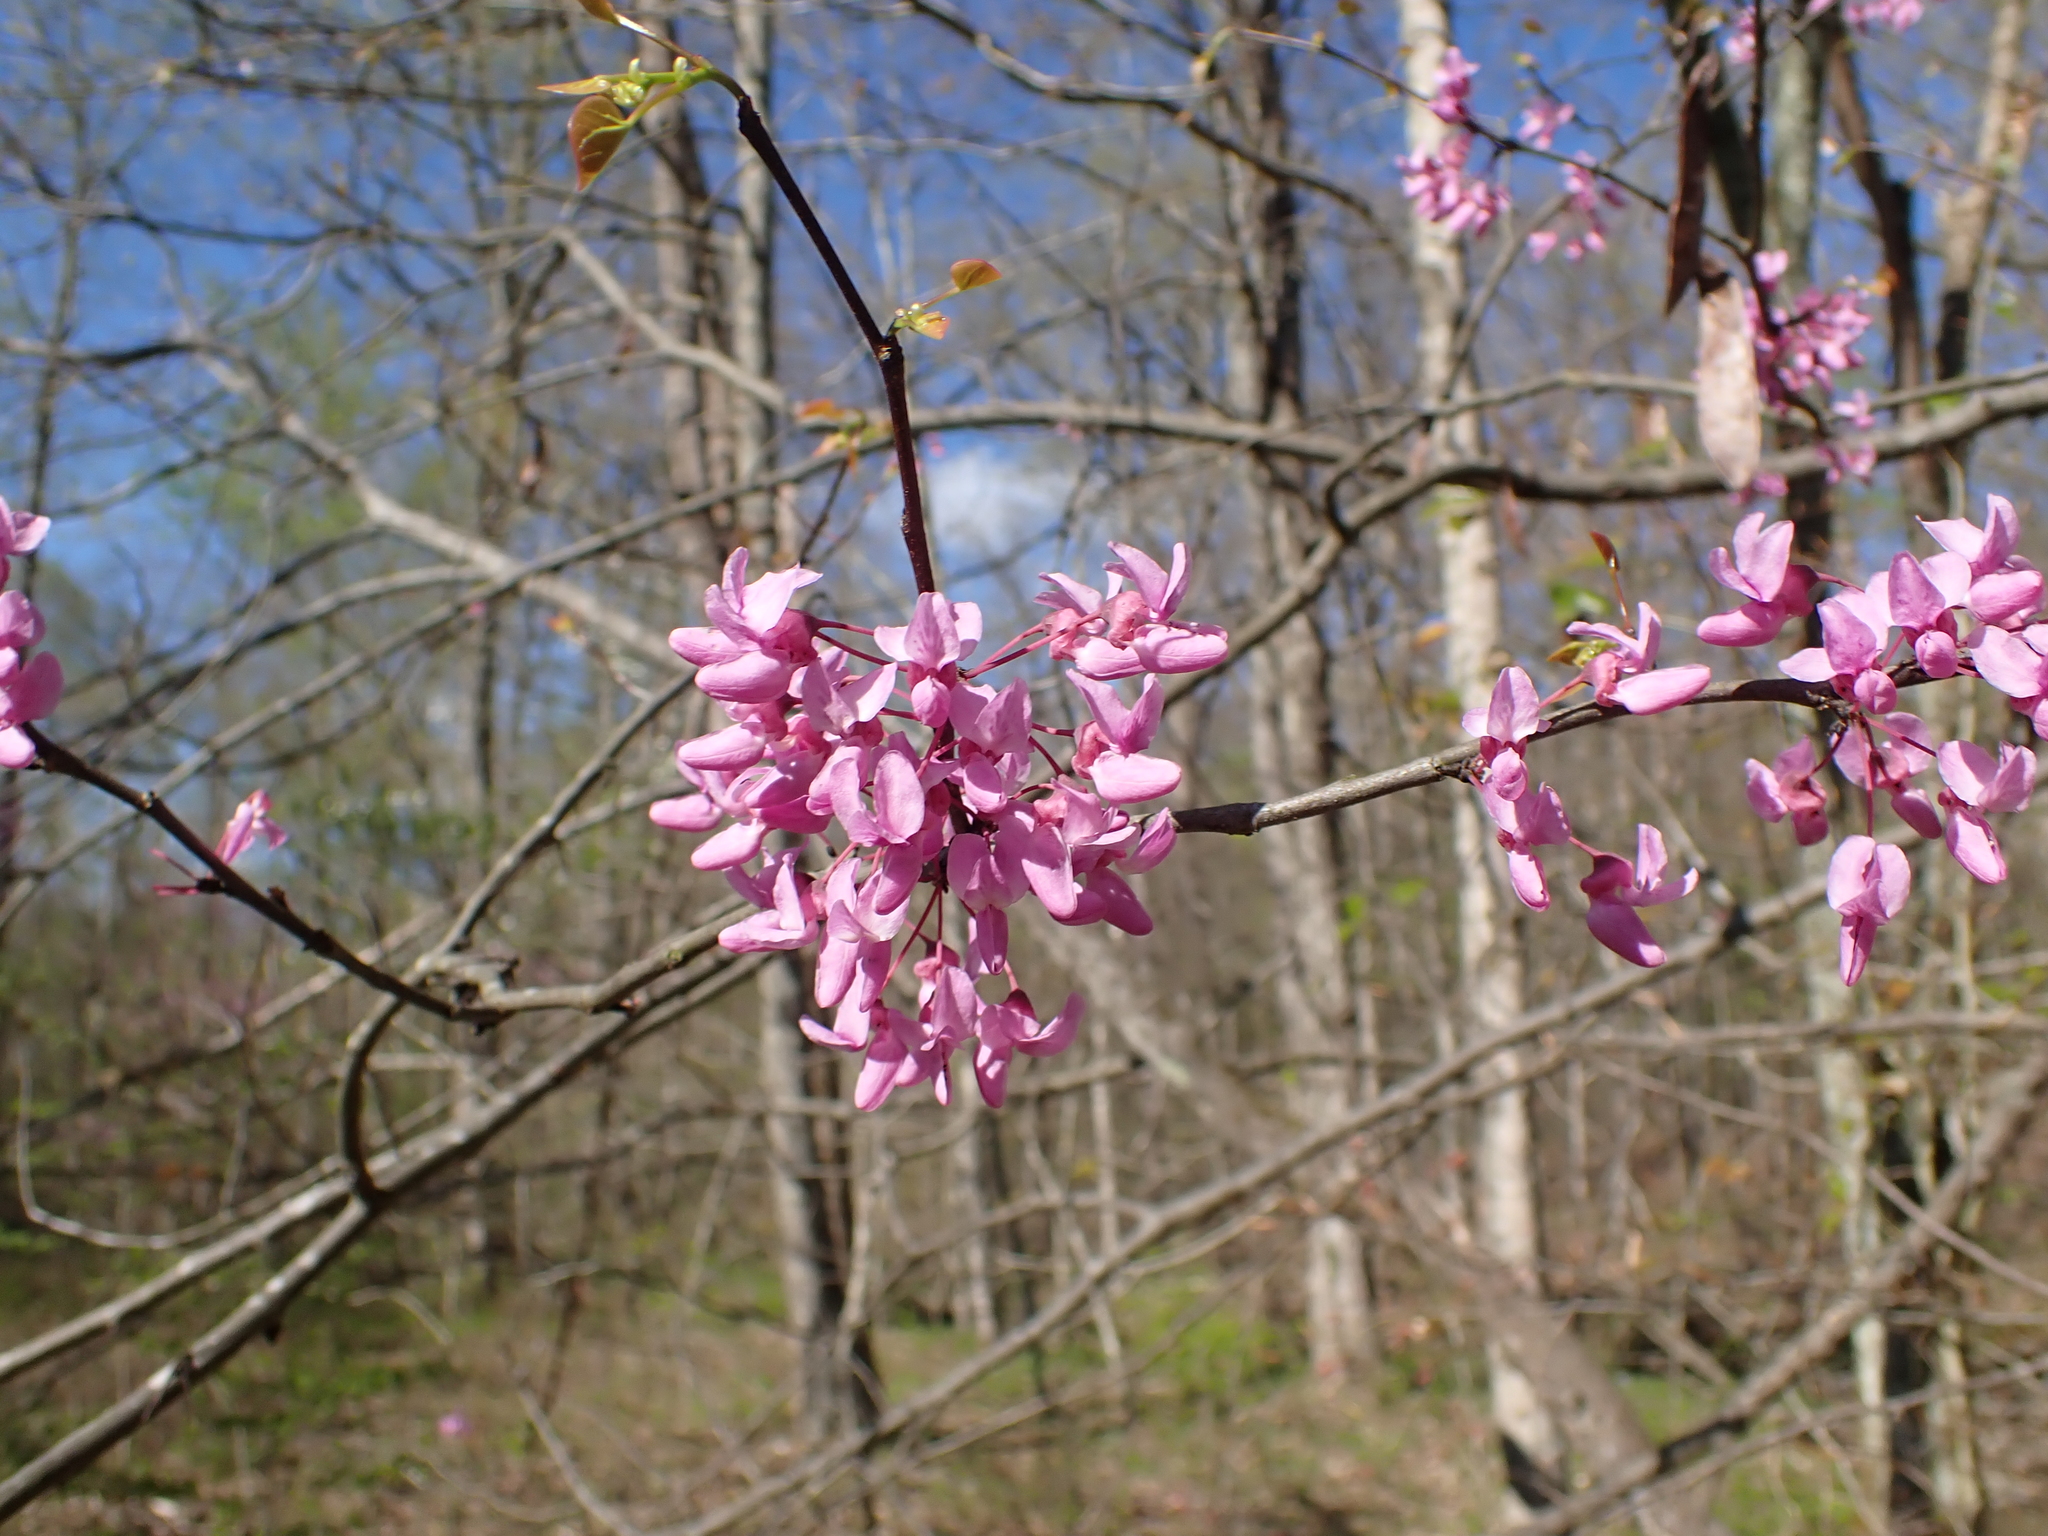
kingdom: Plantae
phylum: Tracheophyta
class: Magnoliopsida
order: Fabales
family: Fabaceae
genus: Cercis
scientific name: Cercis canadensis
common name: Eastern redbud
